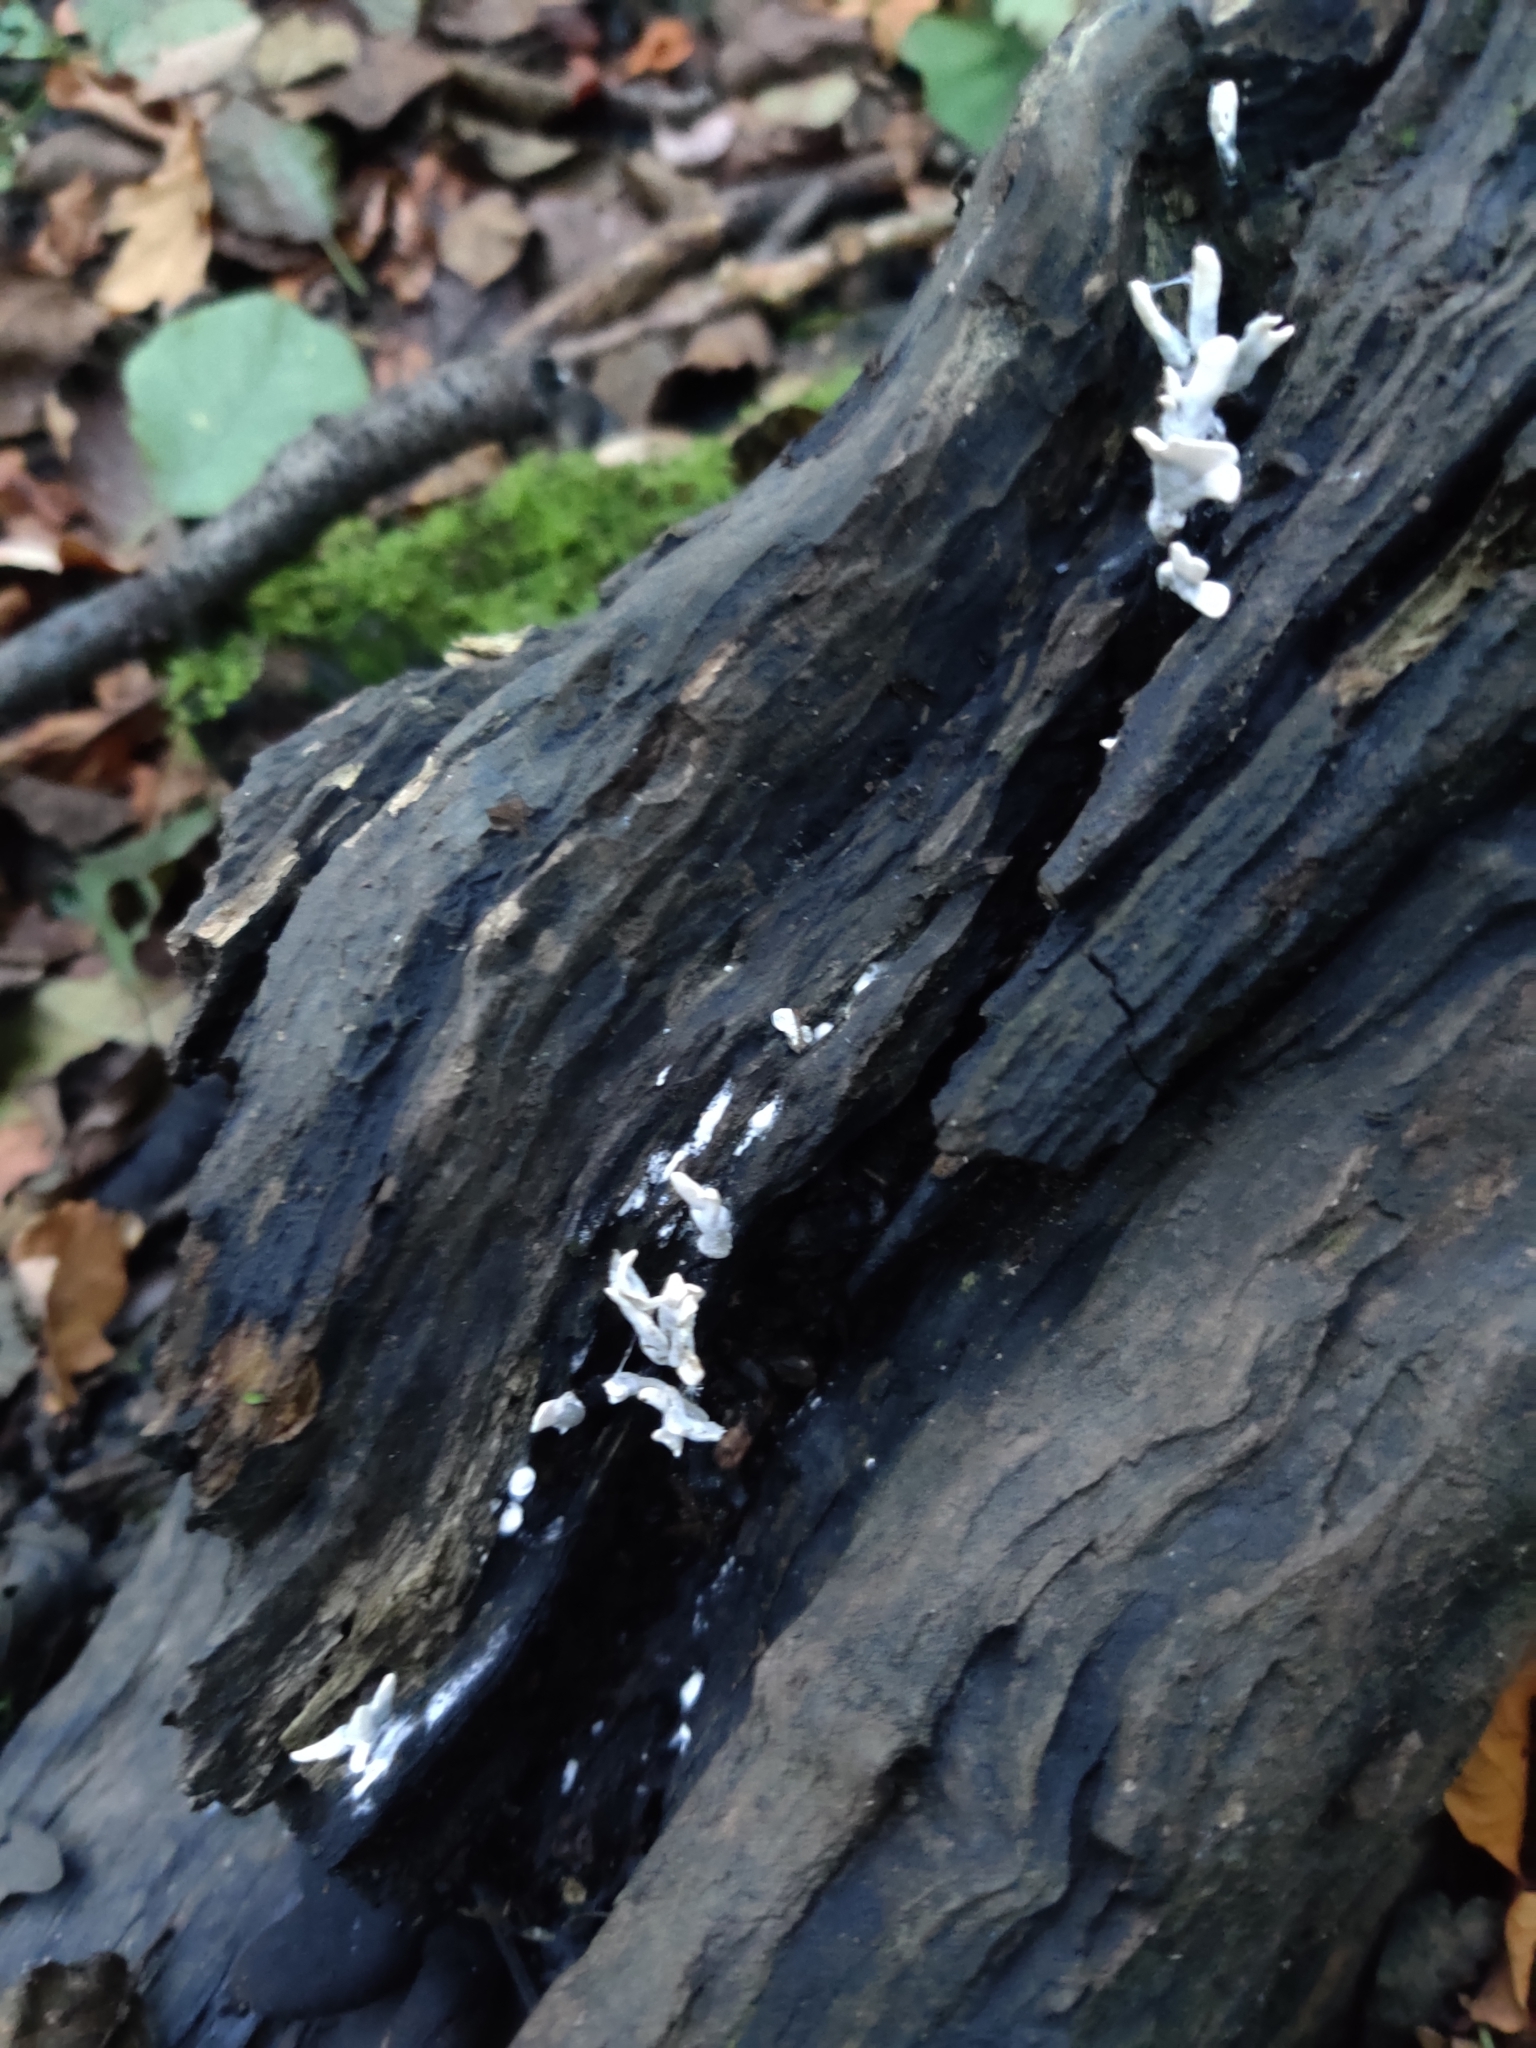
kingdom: Fungi
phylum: Ascomycota
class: Sordariomycetes
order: Xylariales
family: Xylariaceae
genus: Xylaria
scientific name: Xylaria hypoxylon
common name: Candle-snuff fungus
